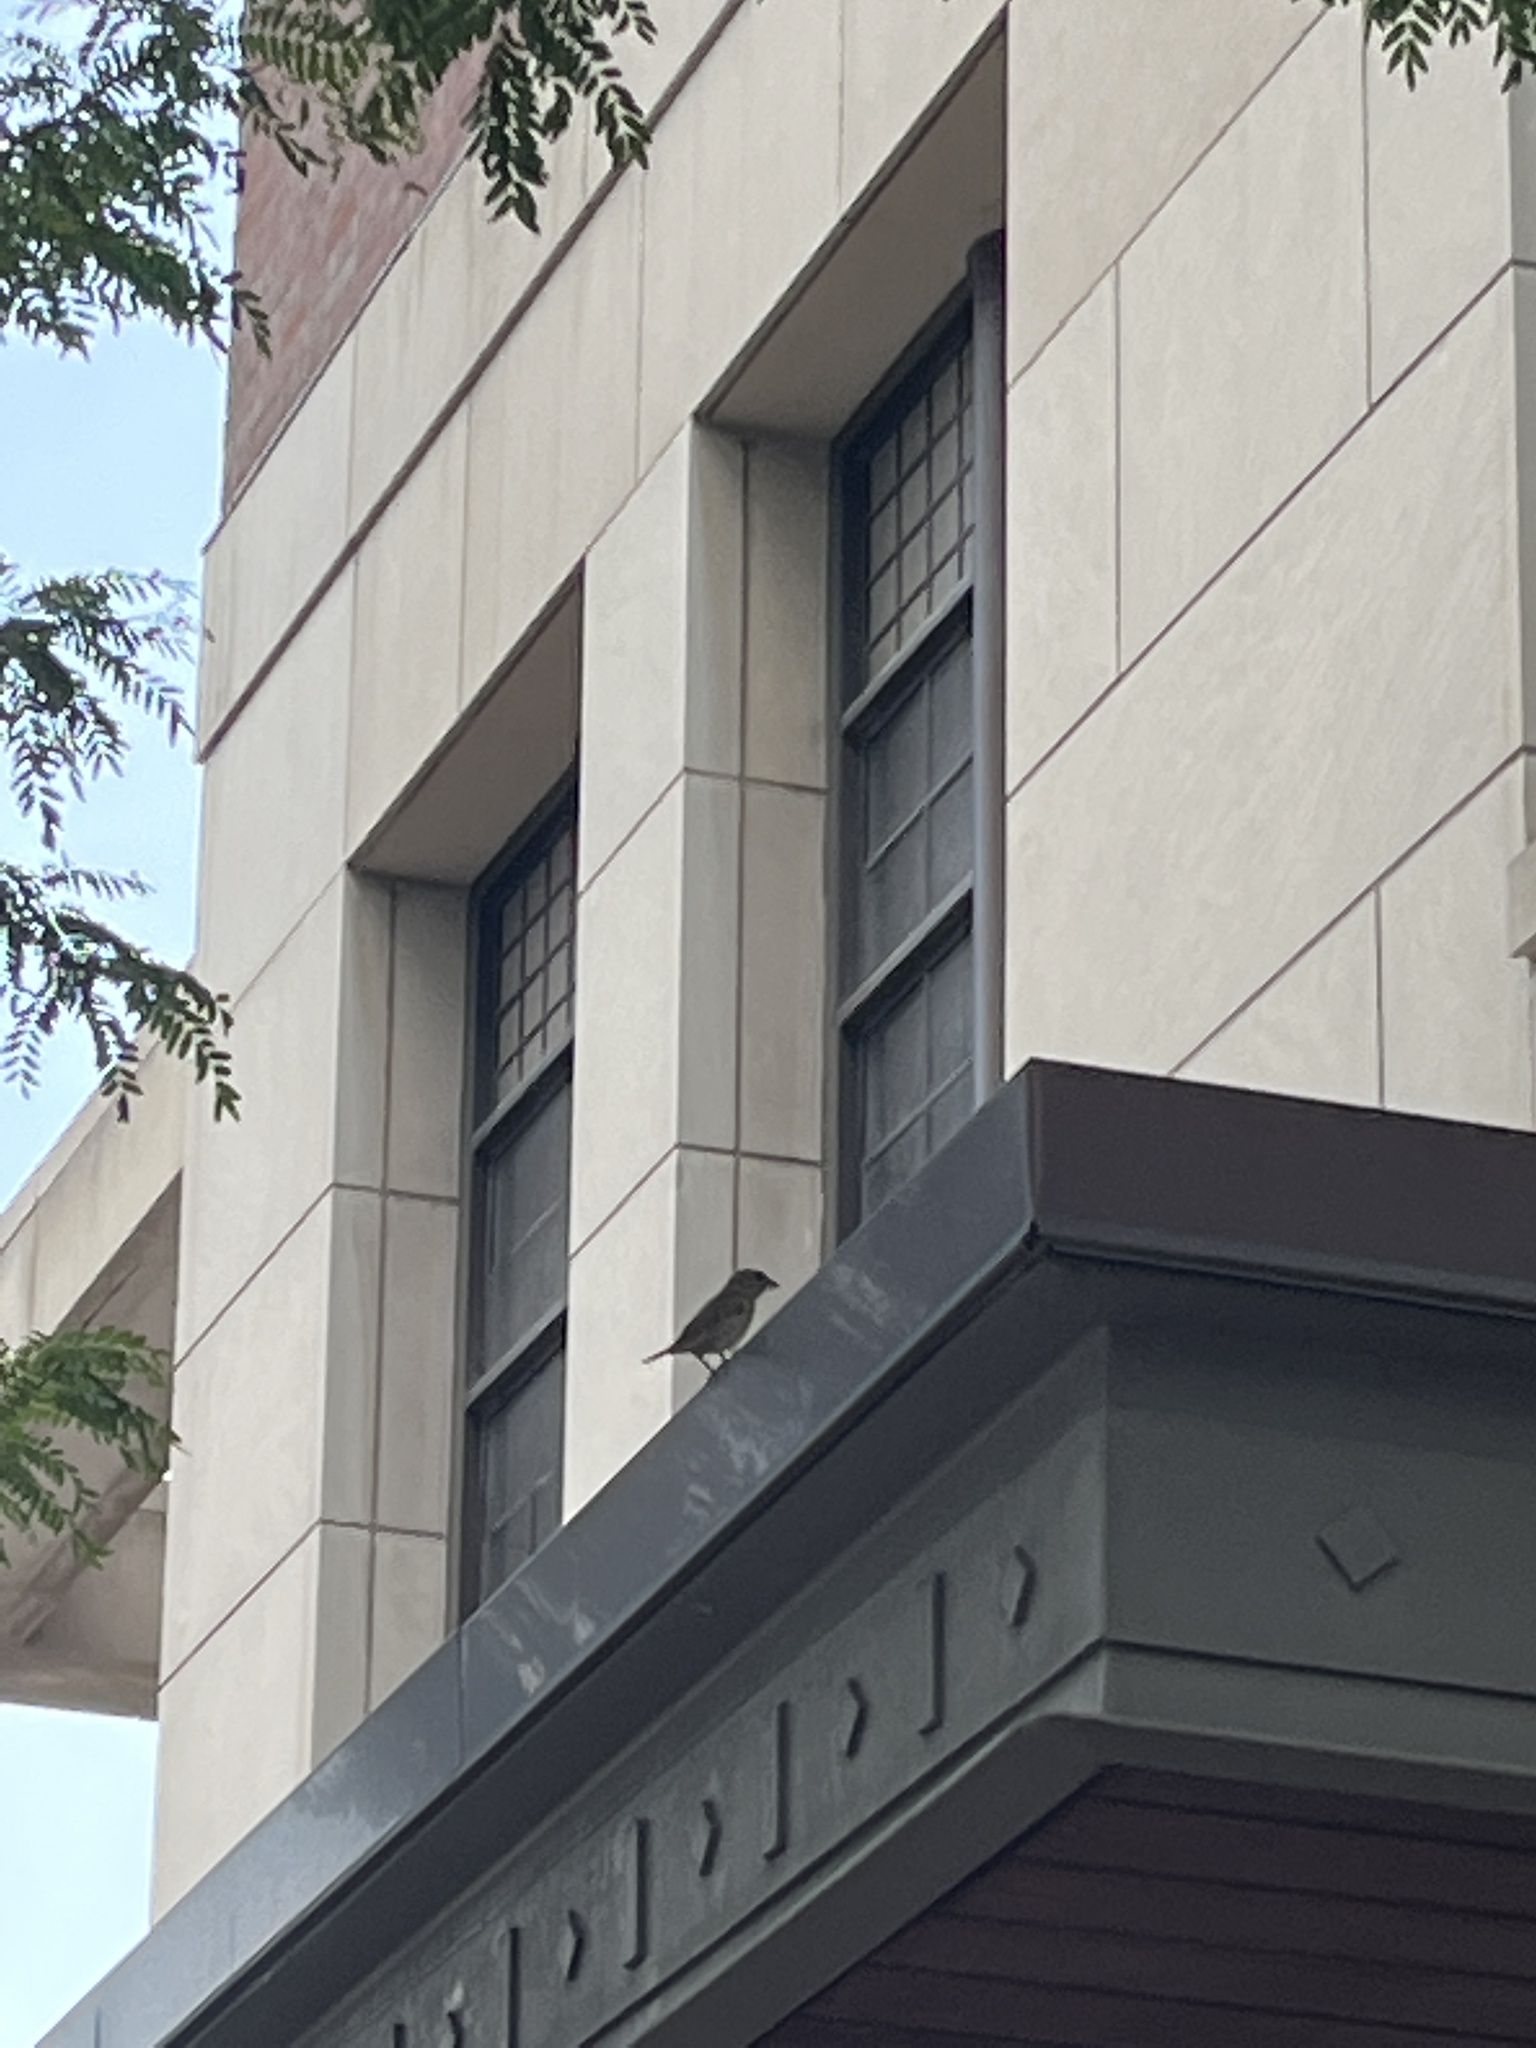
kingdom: Animalia
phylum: Chordata
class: Aves
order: Passeriformes
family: Passeridae
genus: Passer
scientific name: Passer domesticus
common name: House sparrow
